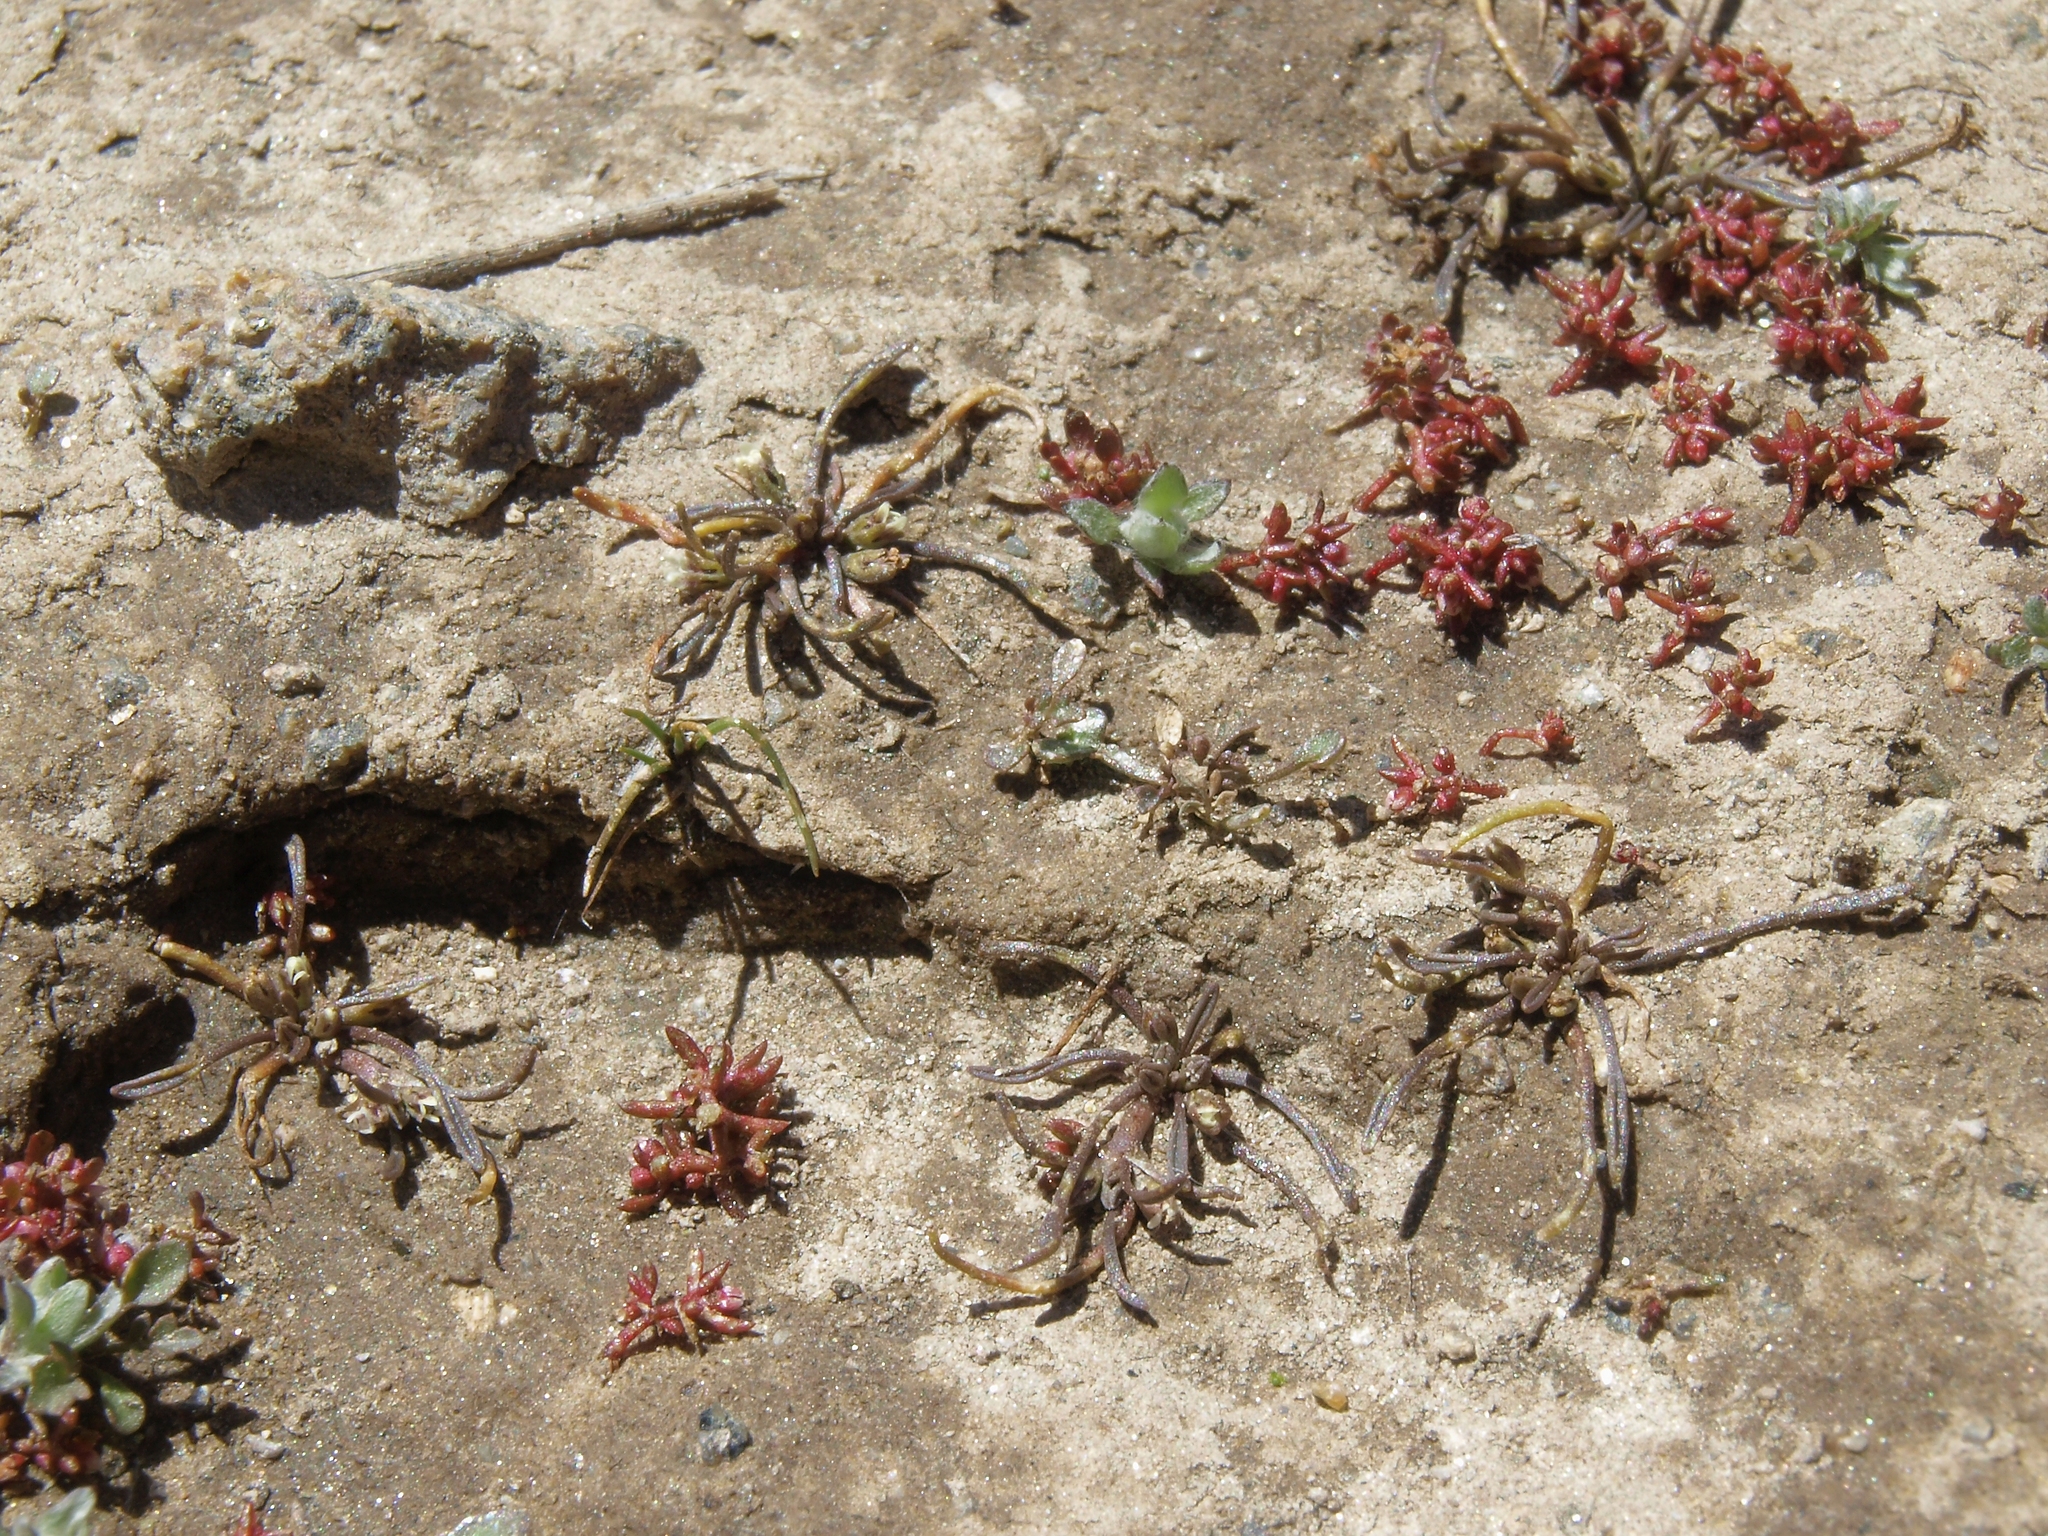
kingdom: Plantae
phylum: Tracheophyta
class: Magnoliopsida
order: Lamiales
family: Scrophulariaceae
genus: Limosella
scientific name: Limosella aquatica
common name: Mudwort
